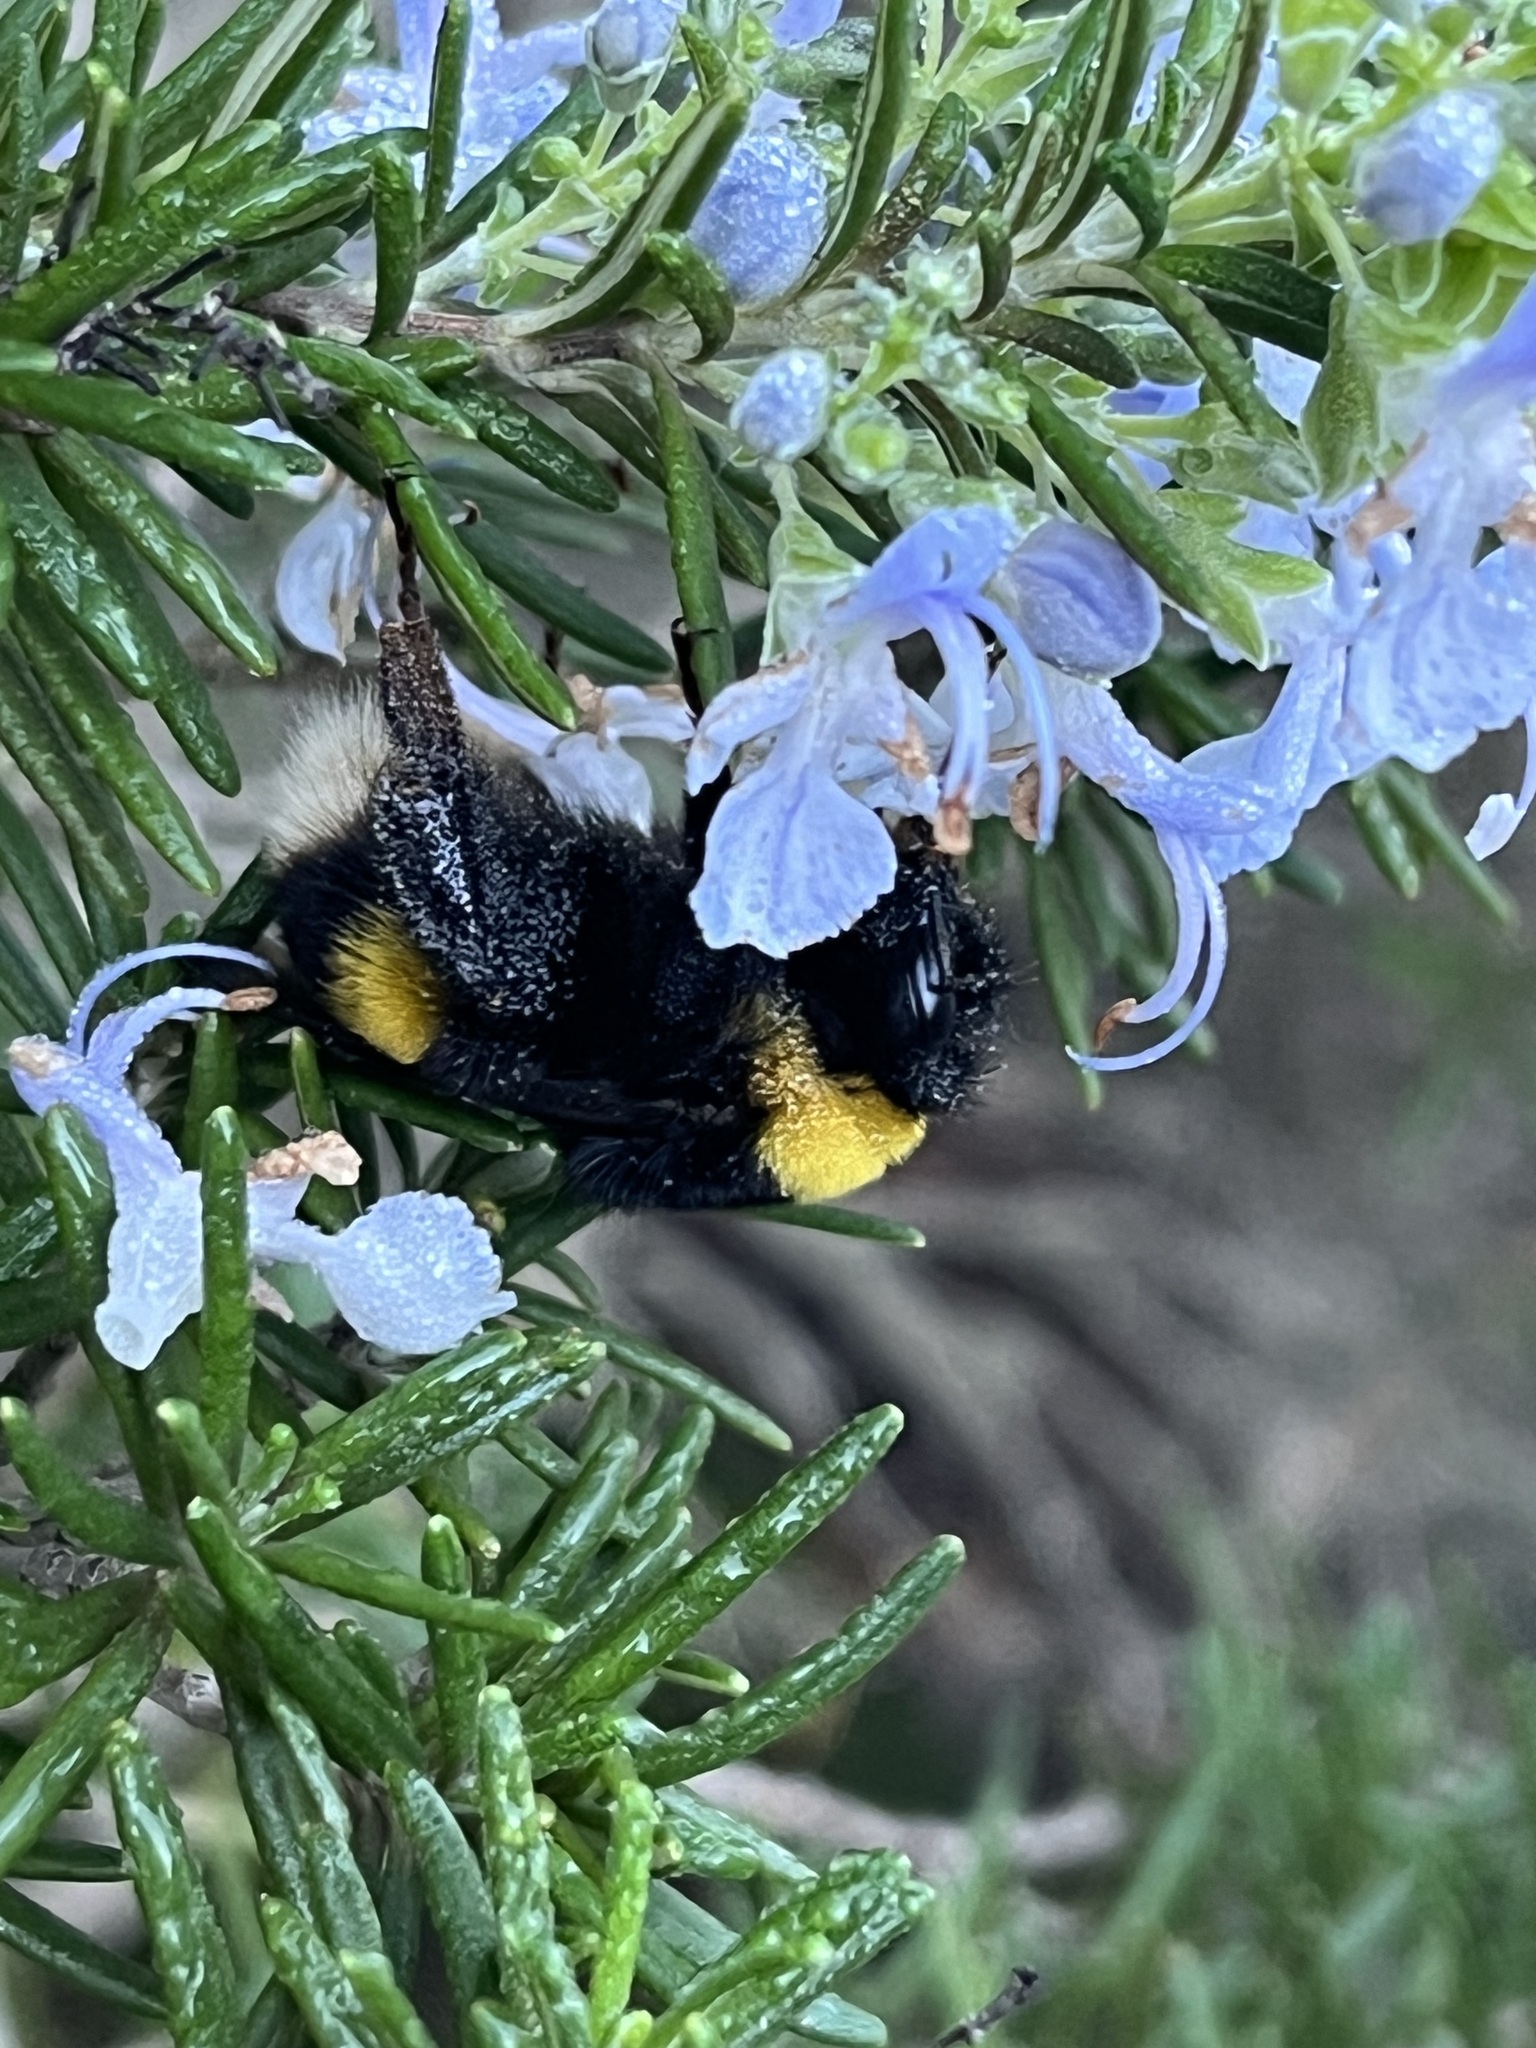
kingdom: Animalia
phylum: Arthropoda
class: Insecta
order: Hymenoptera
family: Apidae
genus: Bombus
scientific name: Bombus terrestris
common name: Buff-tailed bumblebee
